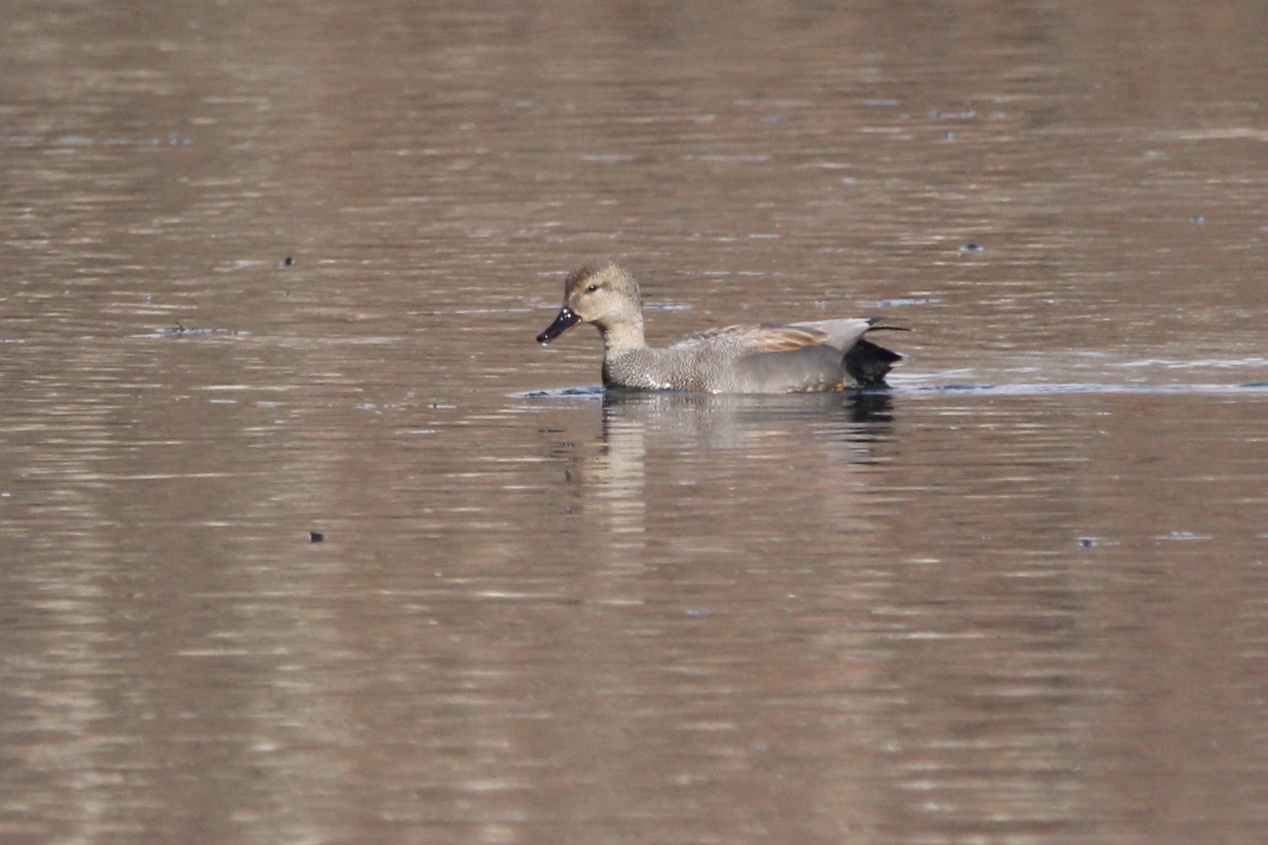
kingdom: Animalia
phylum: Chordata
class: Aves
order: Anseriformes
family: Anatidae
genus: Mareca
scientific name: Mareca strepera
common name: Gadwall
